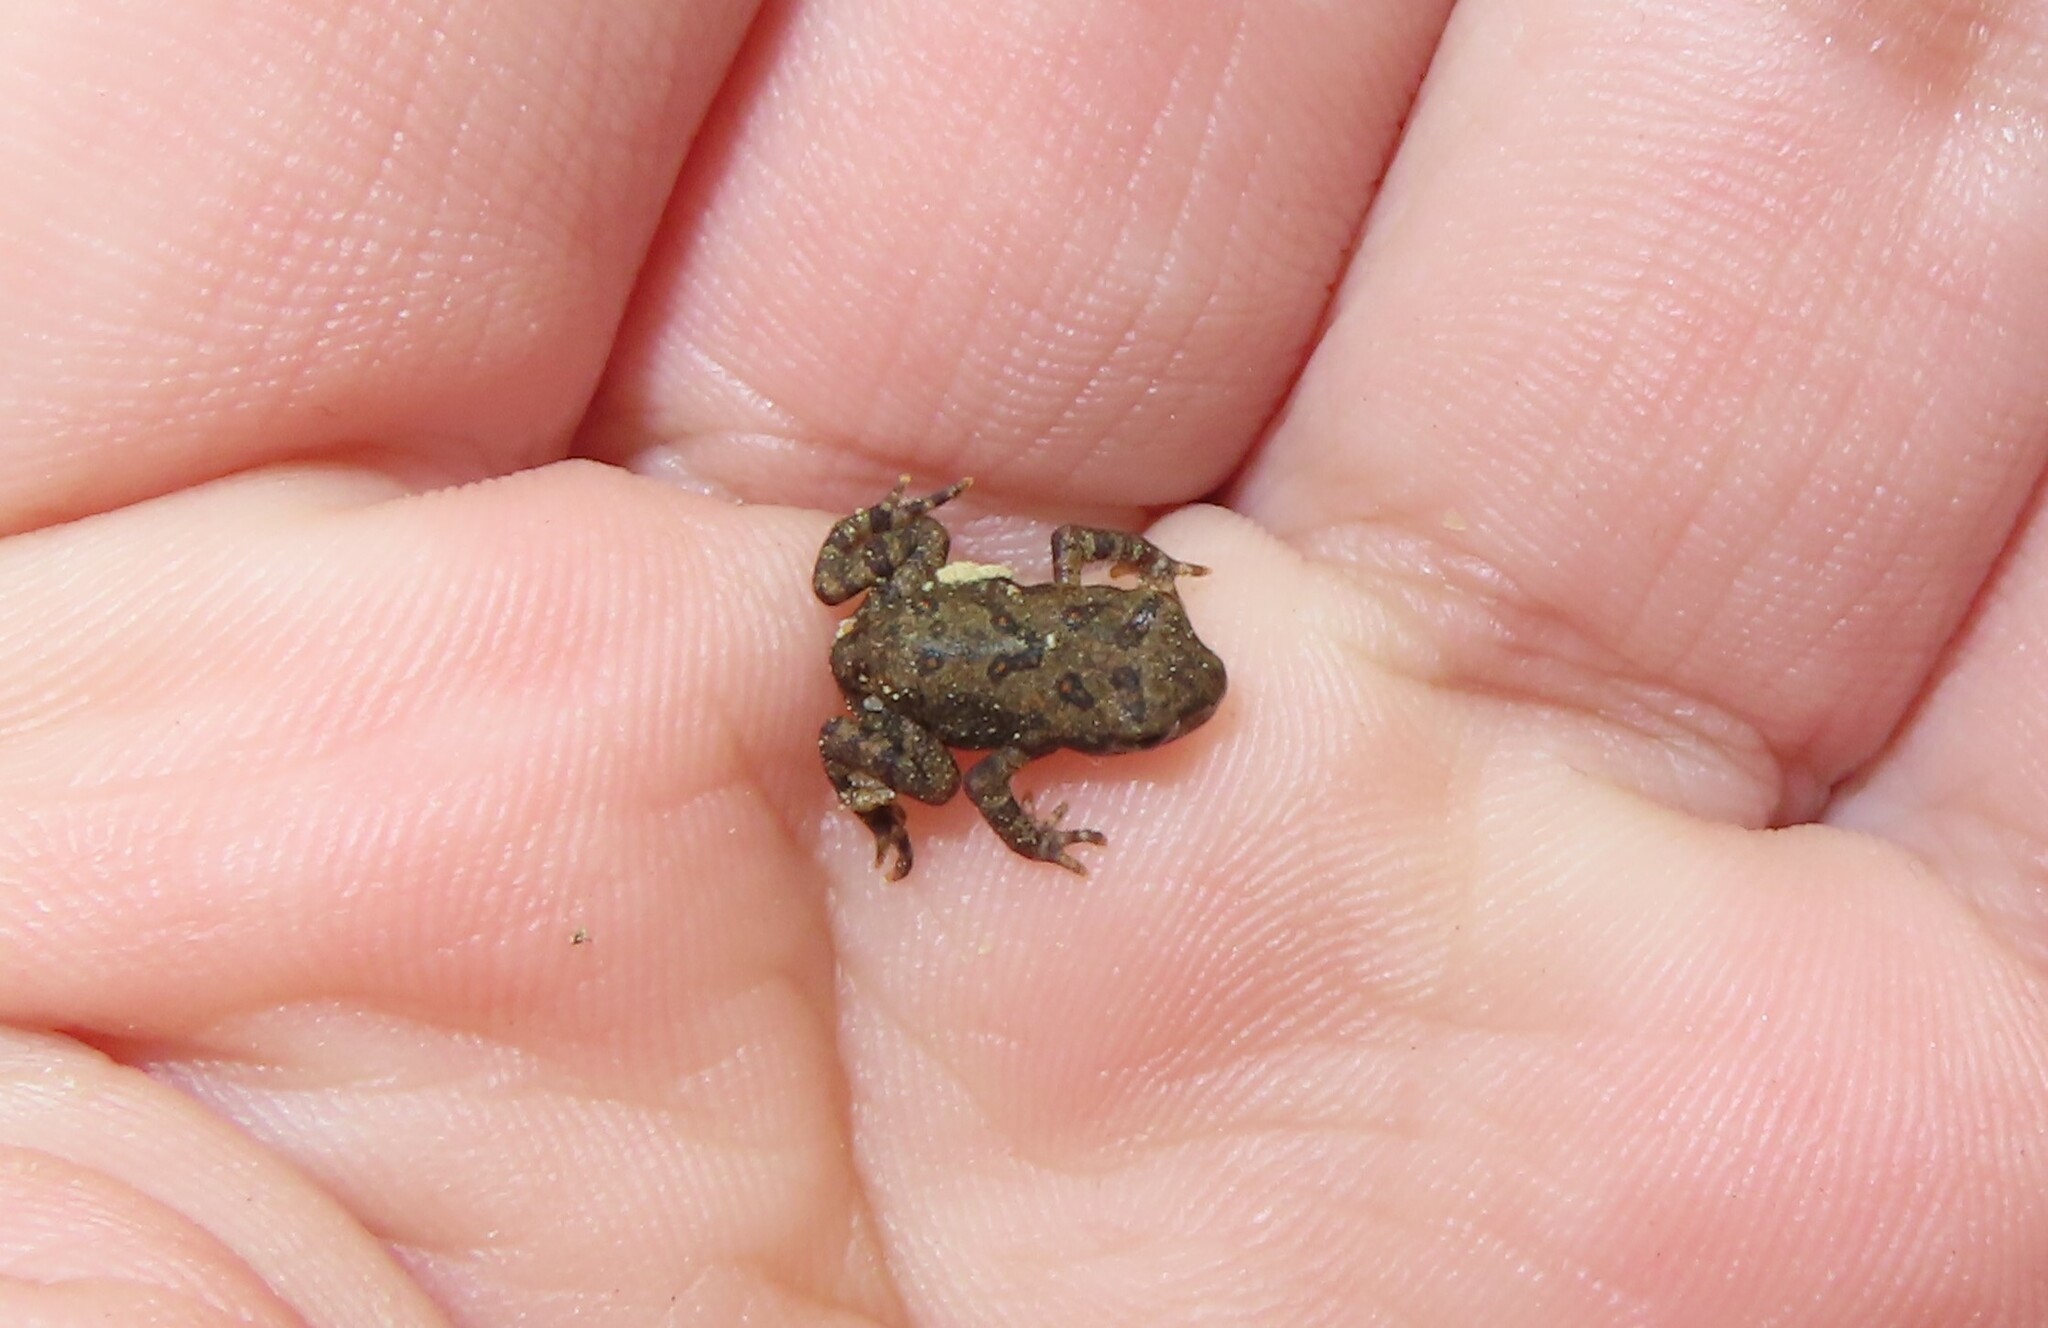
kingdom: Animalia
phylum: Chordata
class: Amphibia
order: Anura
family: Bufonidae
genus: Anaxyrus
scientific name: Anaxyrus americanus
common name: American toad
